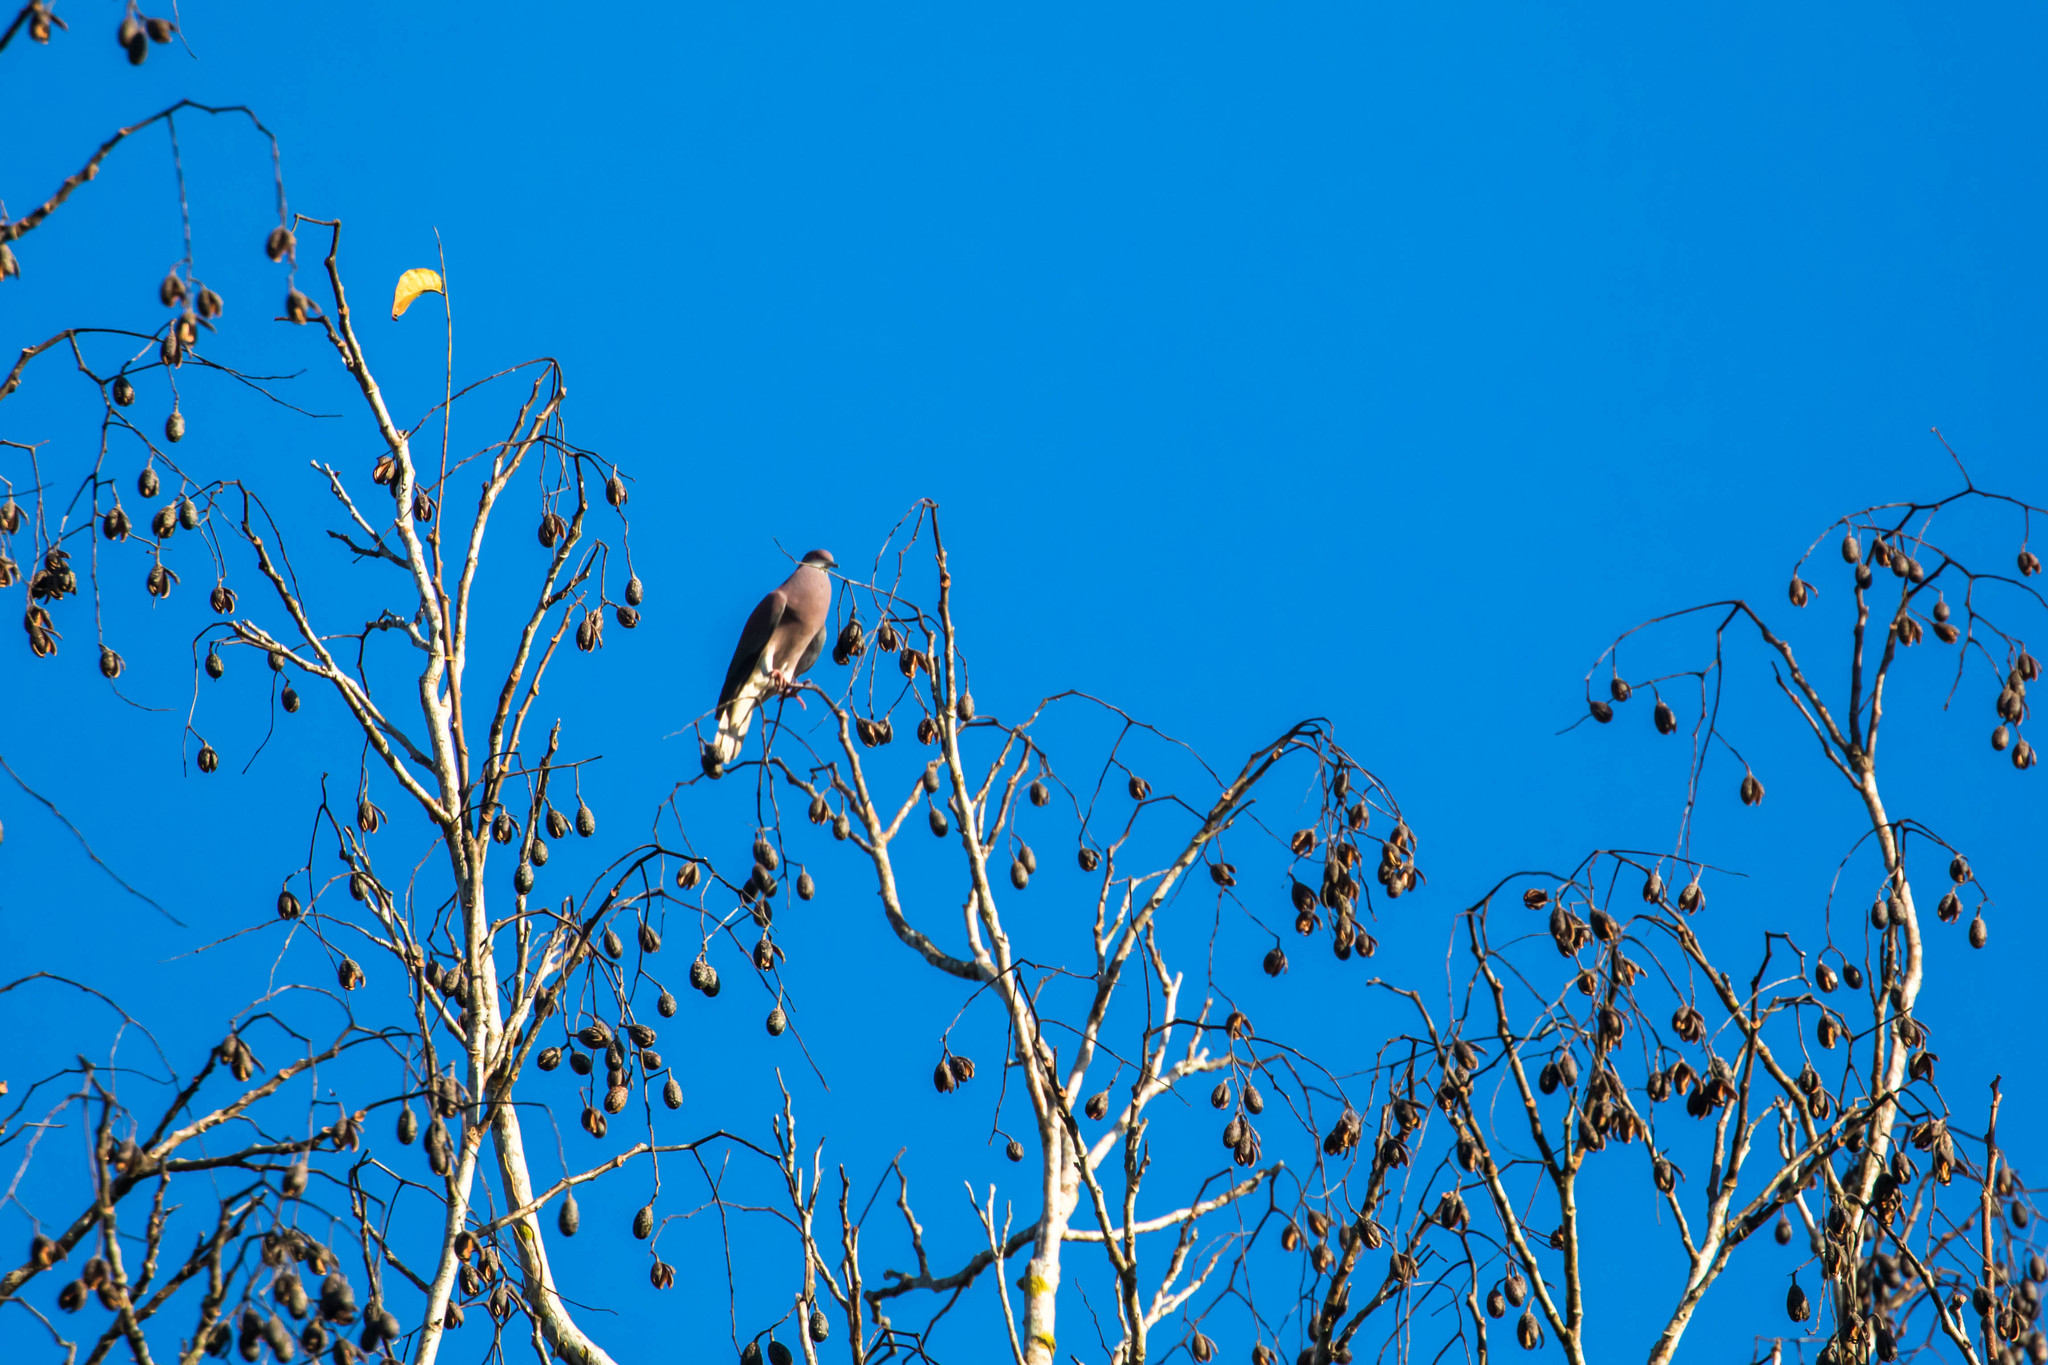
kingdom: Animalia
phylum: Chordata
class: Aves
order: Columbiformes
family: Columbidae
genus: Patagioenas
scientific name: Patagioenas cayennensis
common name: Pale-vented pigeon
